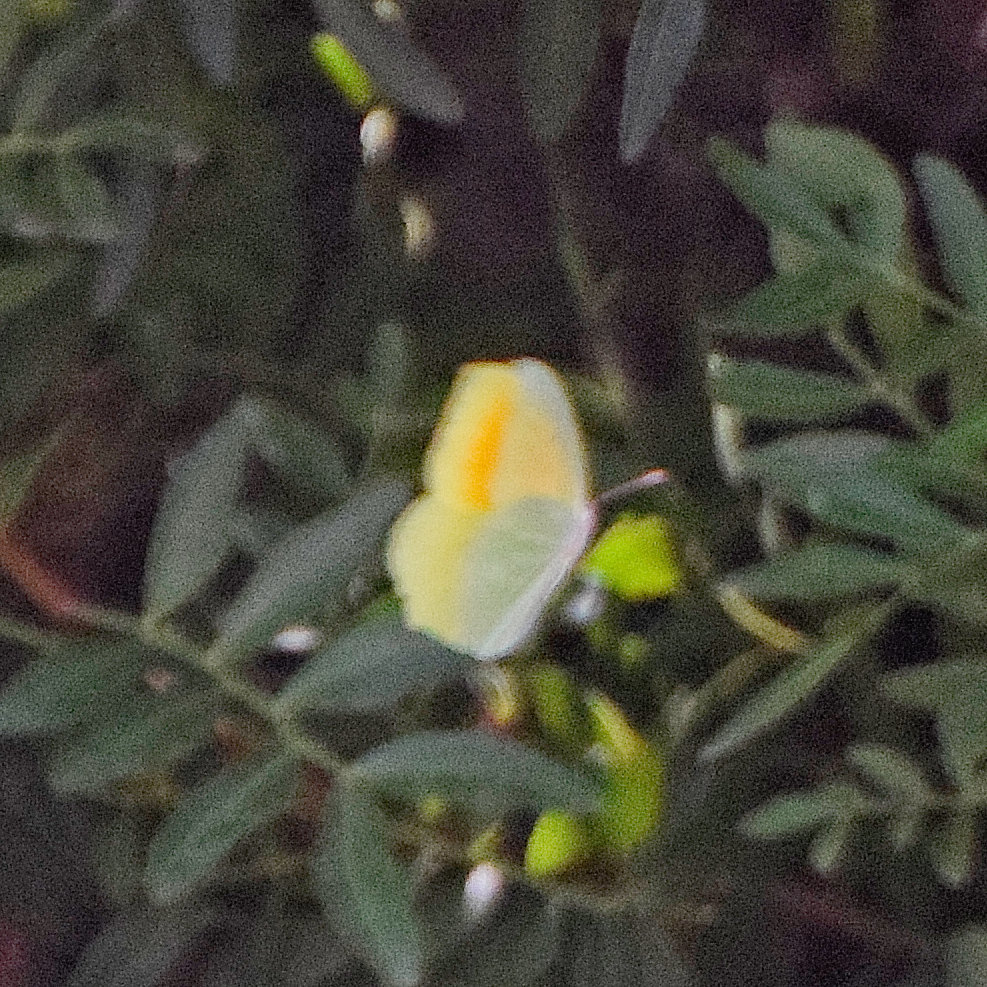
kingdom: Animalia
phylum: Arthropoda
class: Insecta
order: Lepidoptera
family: Pieridae
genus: Gonepteryx
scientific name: Gonepteryx cleopatra
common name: Cleopatra
